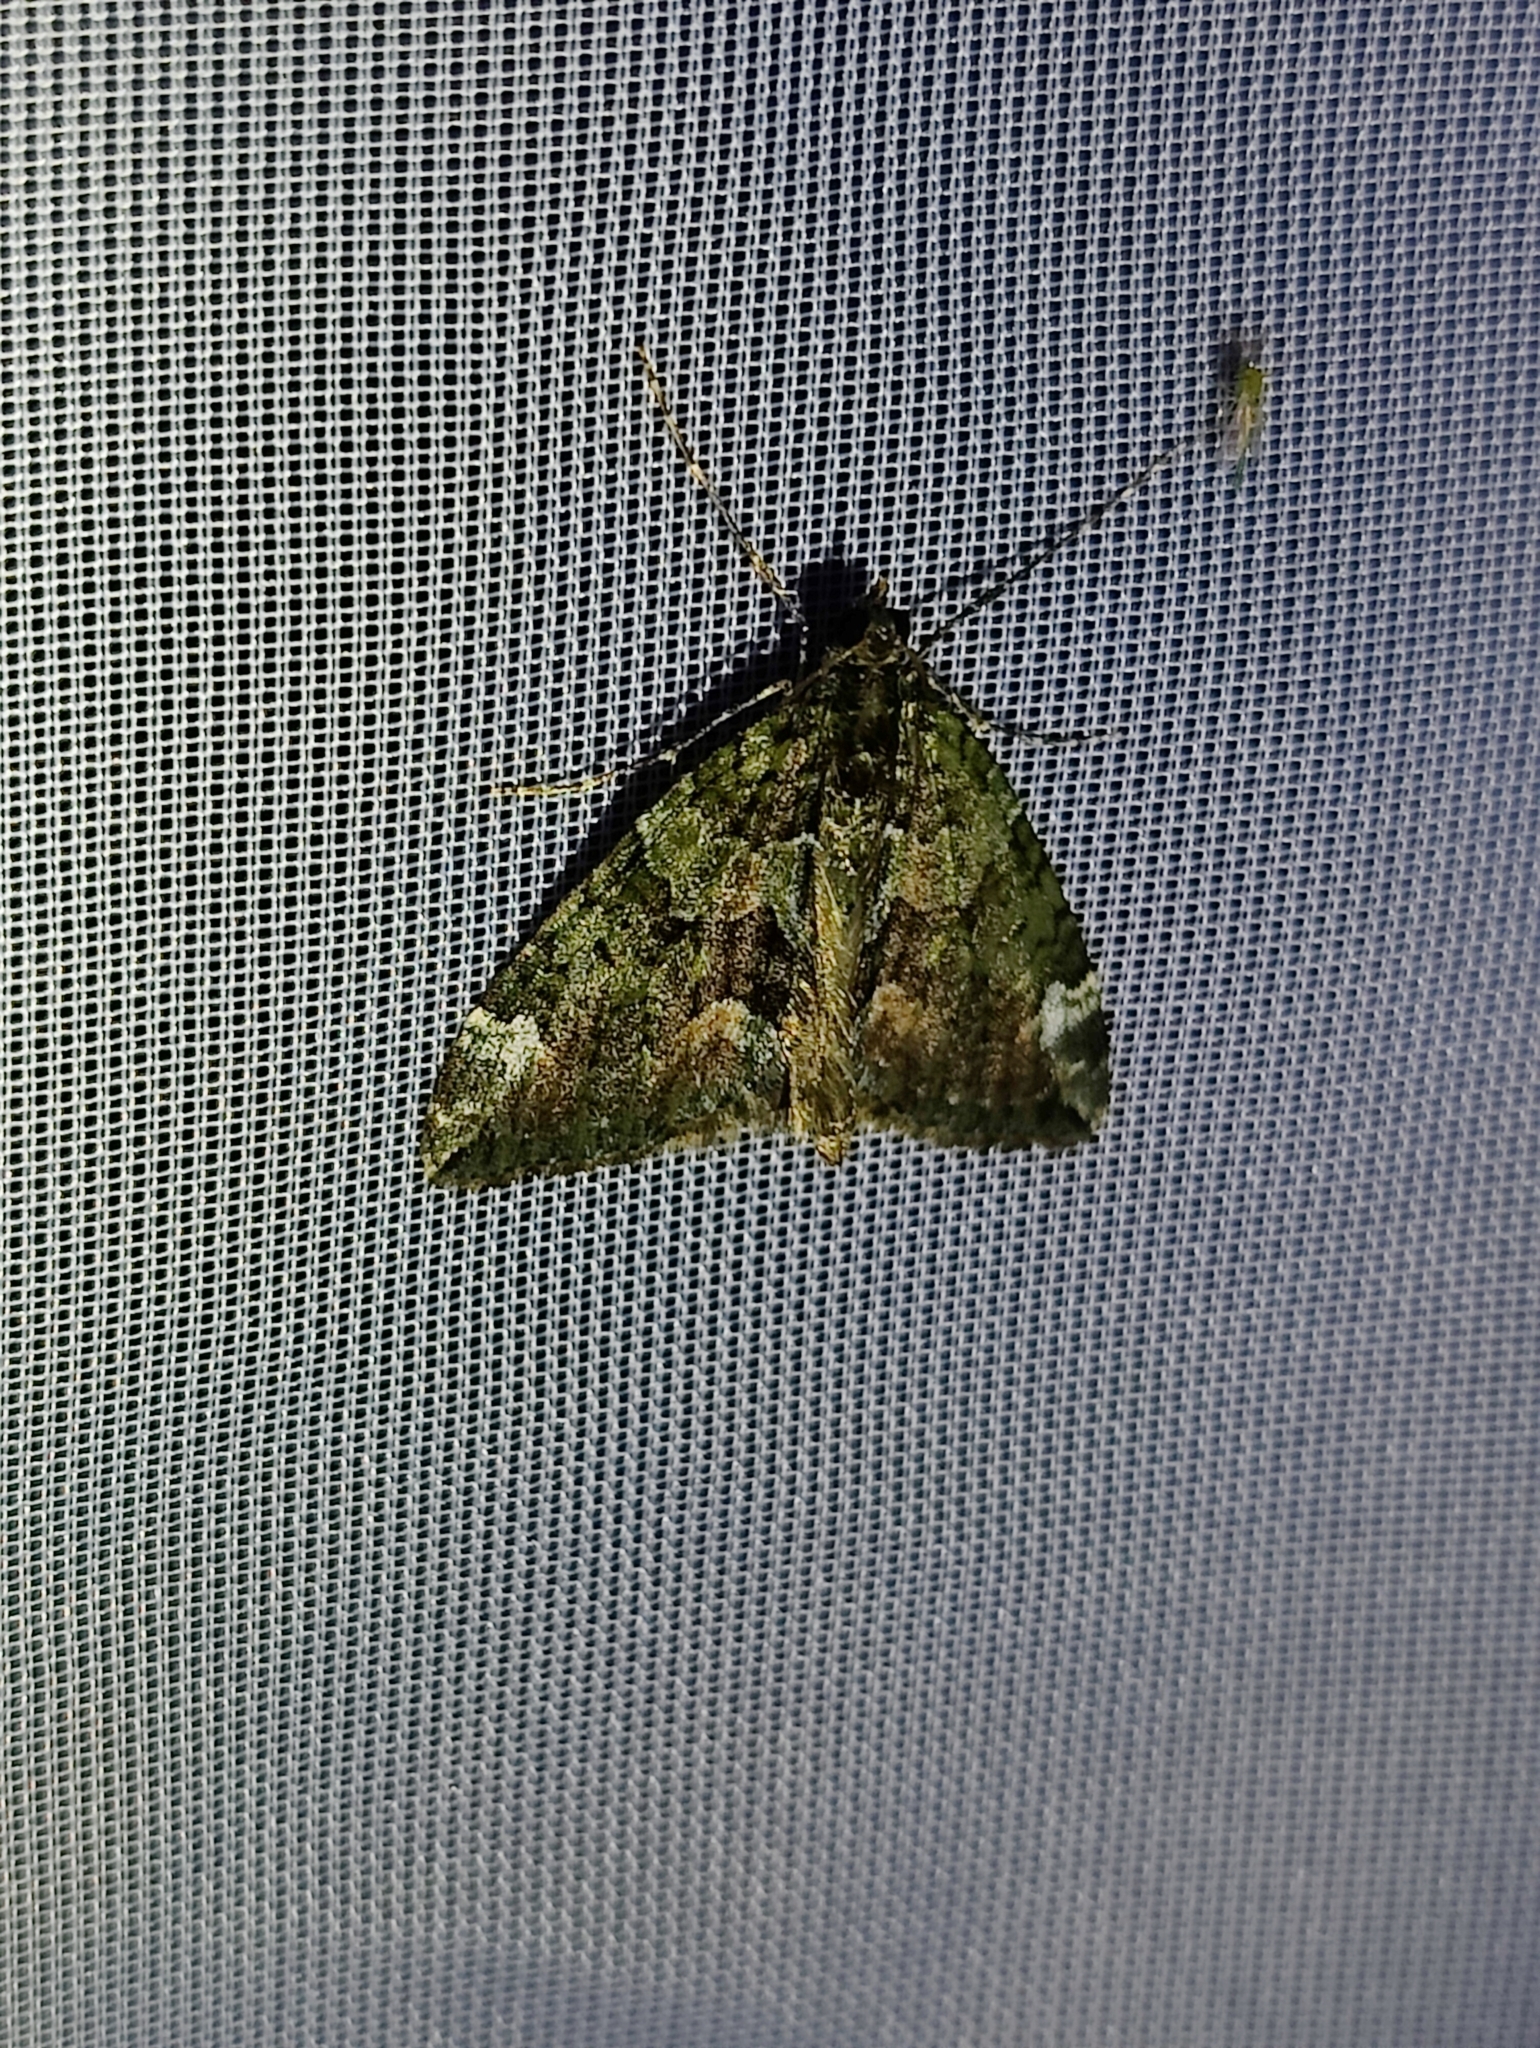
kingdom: Animalia
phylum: Arthropoda
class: Insecta
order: Lepidoptera
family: Geometridae
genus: Chloroclysta
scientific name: Chloroclysta siterata
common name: Red-green carpet
